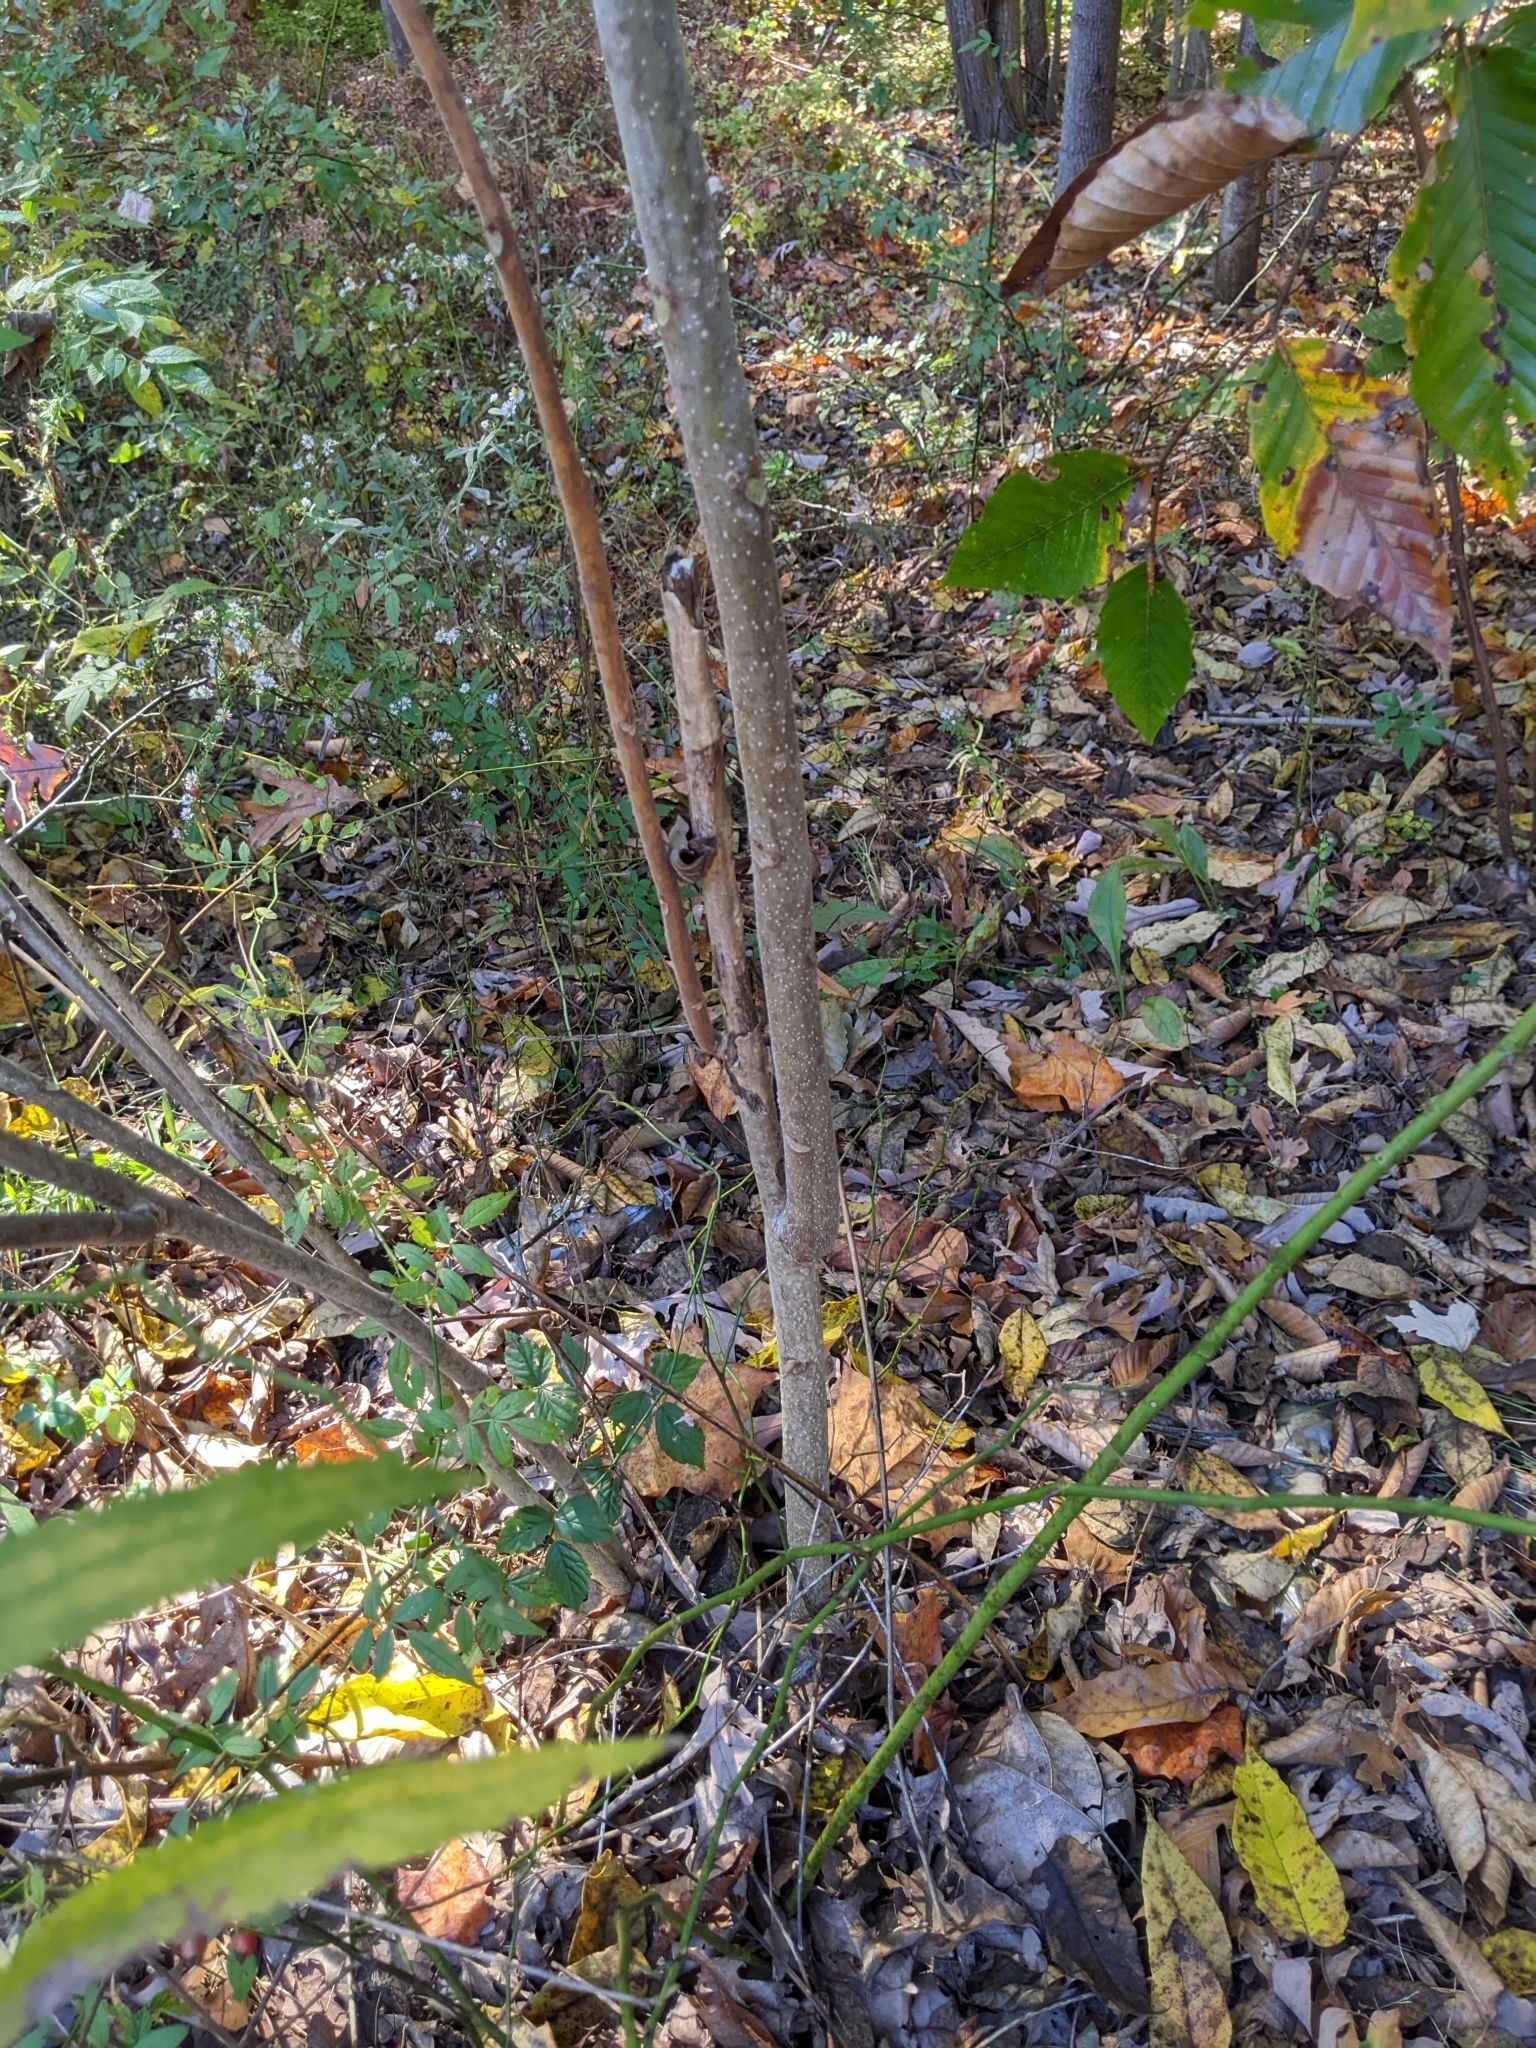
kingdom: Plantae
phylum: Tracheophyta
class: Magnoliopsida
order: Sapindales
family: Simaroubaceae
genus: Ailanthus
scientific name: Ailanthus altissima
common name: Tree-of-heaven
